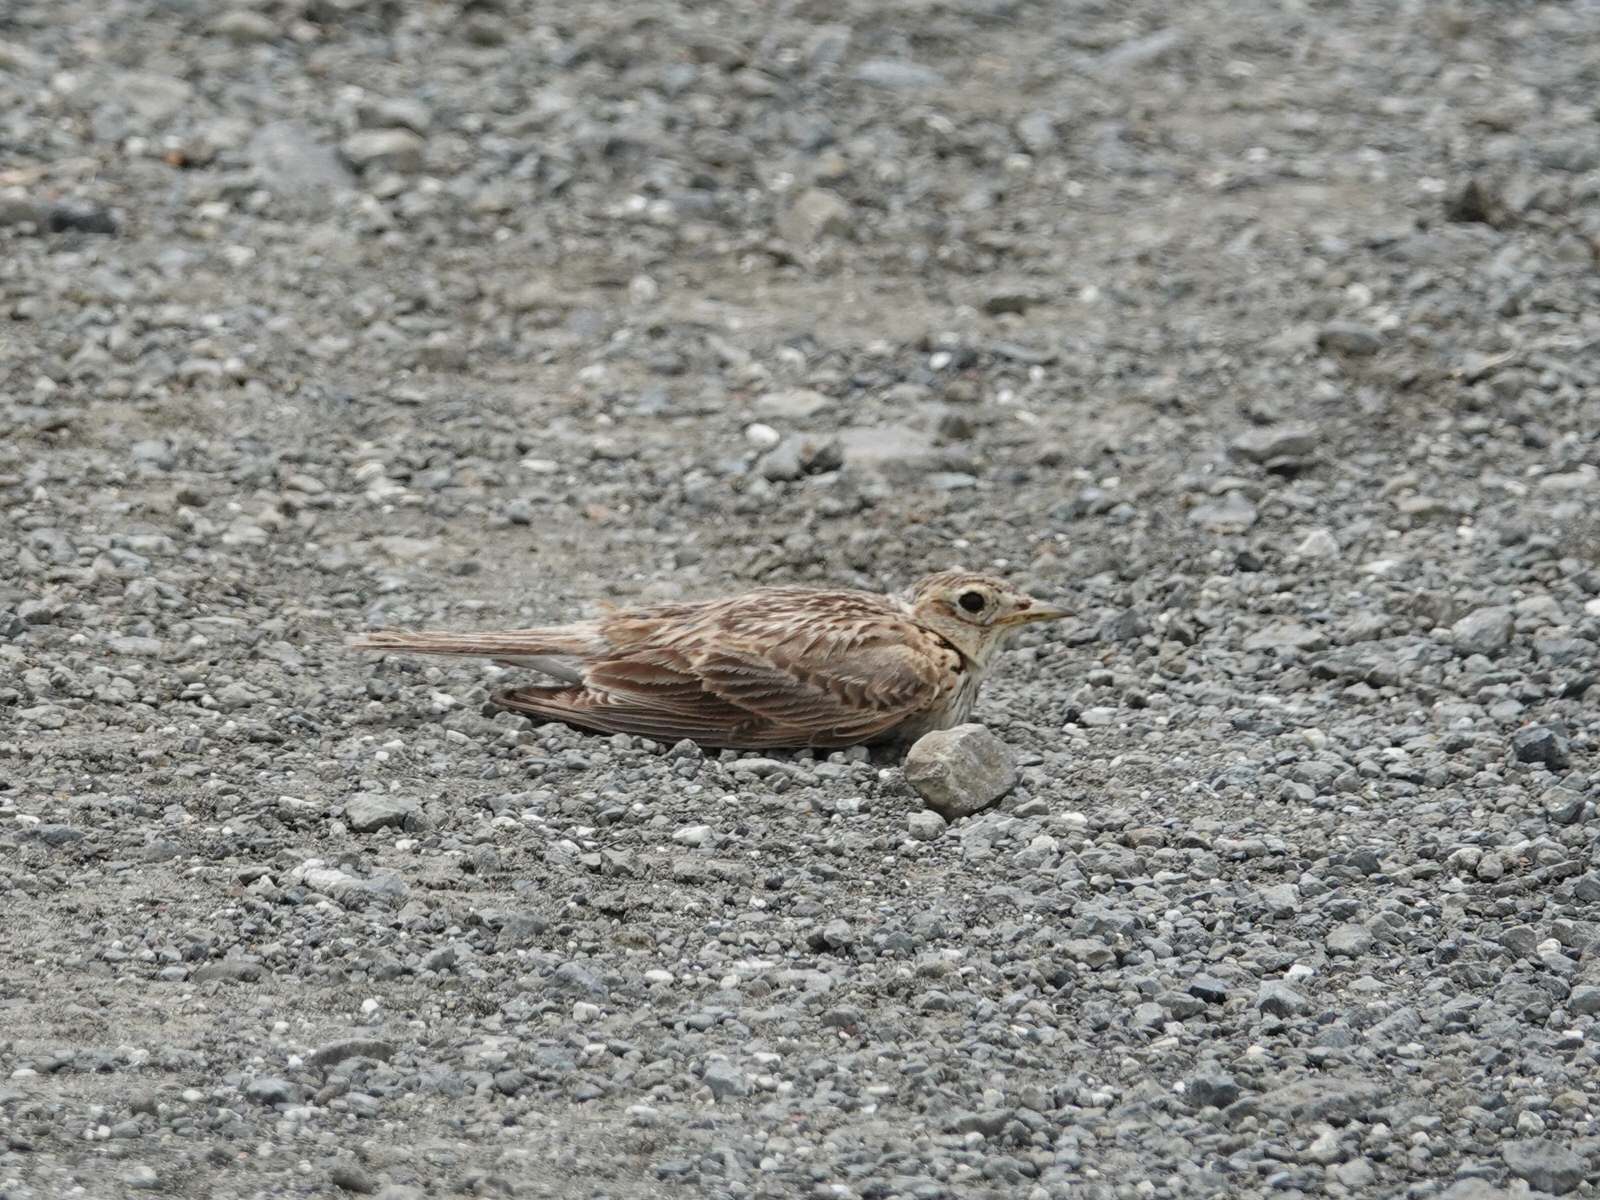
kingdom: Animalia
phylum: Chordata
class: Aves
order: Passeriformes
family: Alaudidae
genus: Alauda
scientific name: Alauda arvensis
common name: Eurasian skylark
